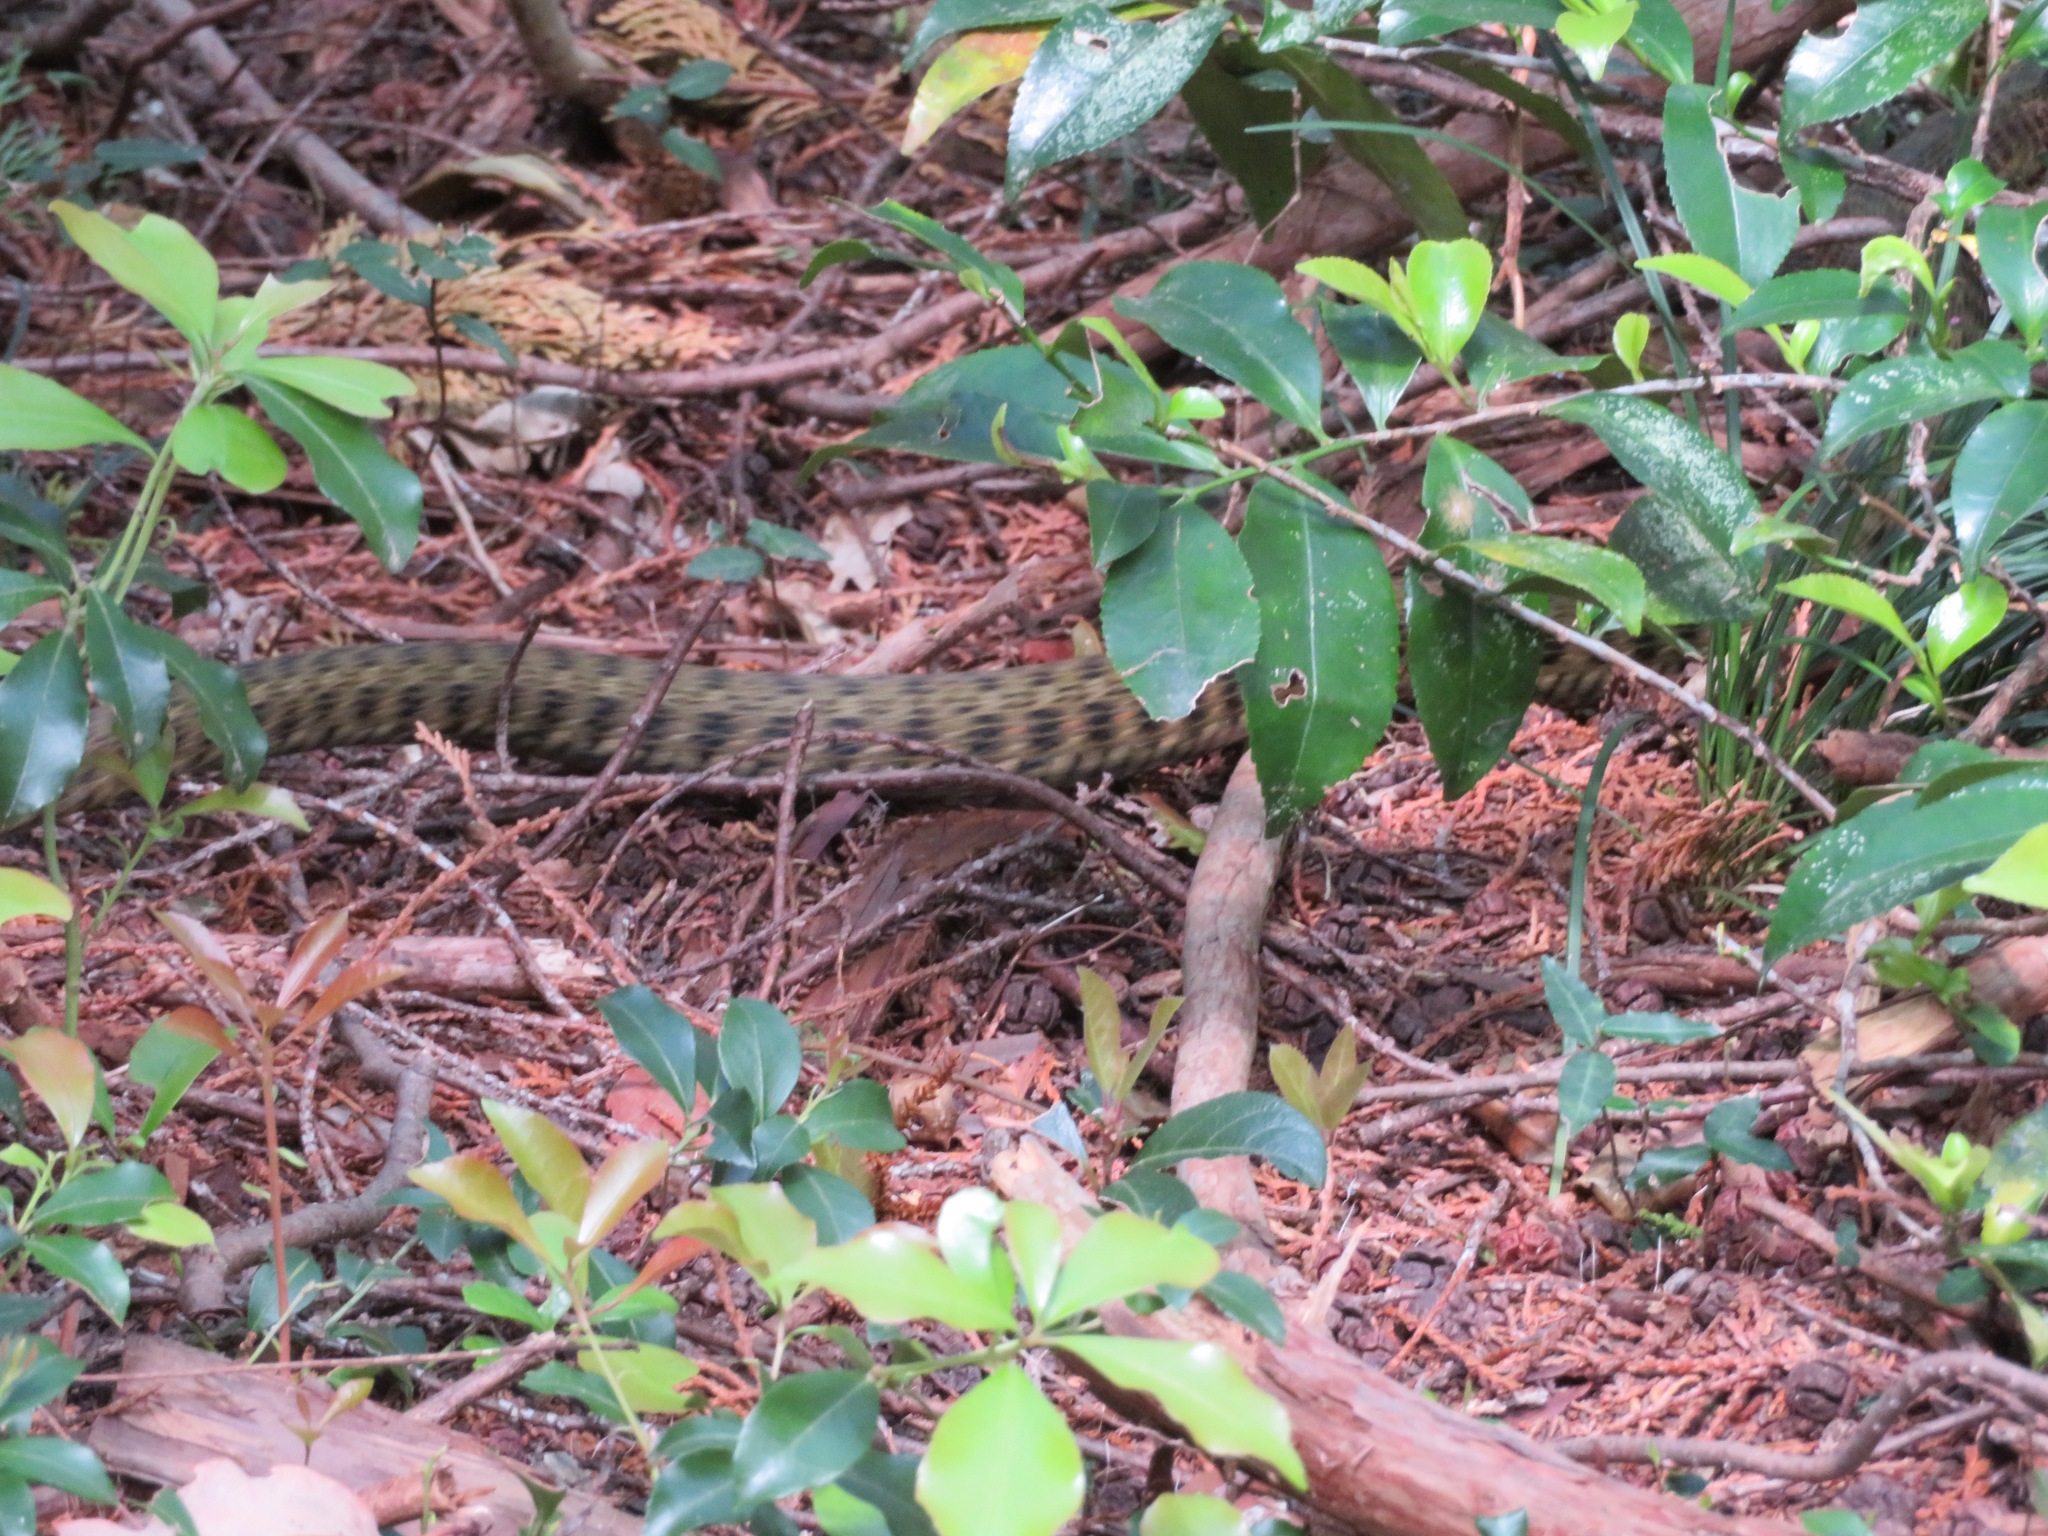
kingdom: Animalia
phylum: Chordata
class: Squamata
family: Colubridae
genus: Rhabdophis
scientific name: Rhabdophis tigrinus
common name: Tiger keelback
